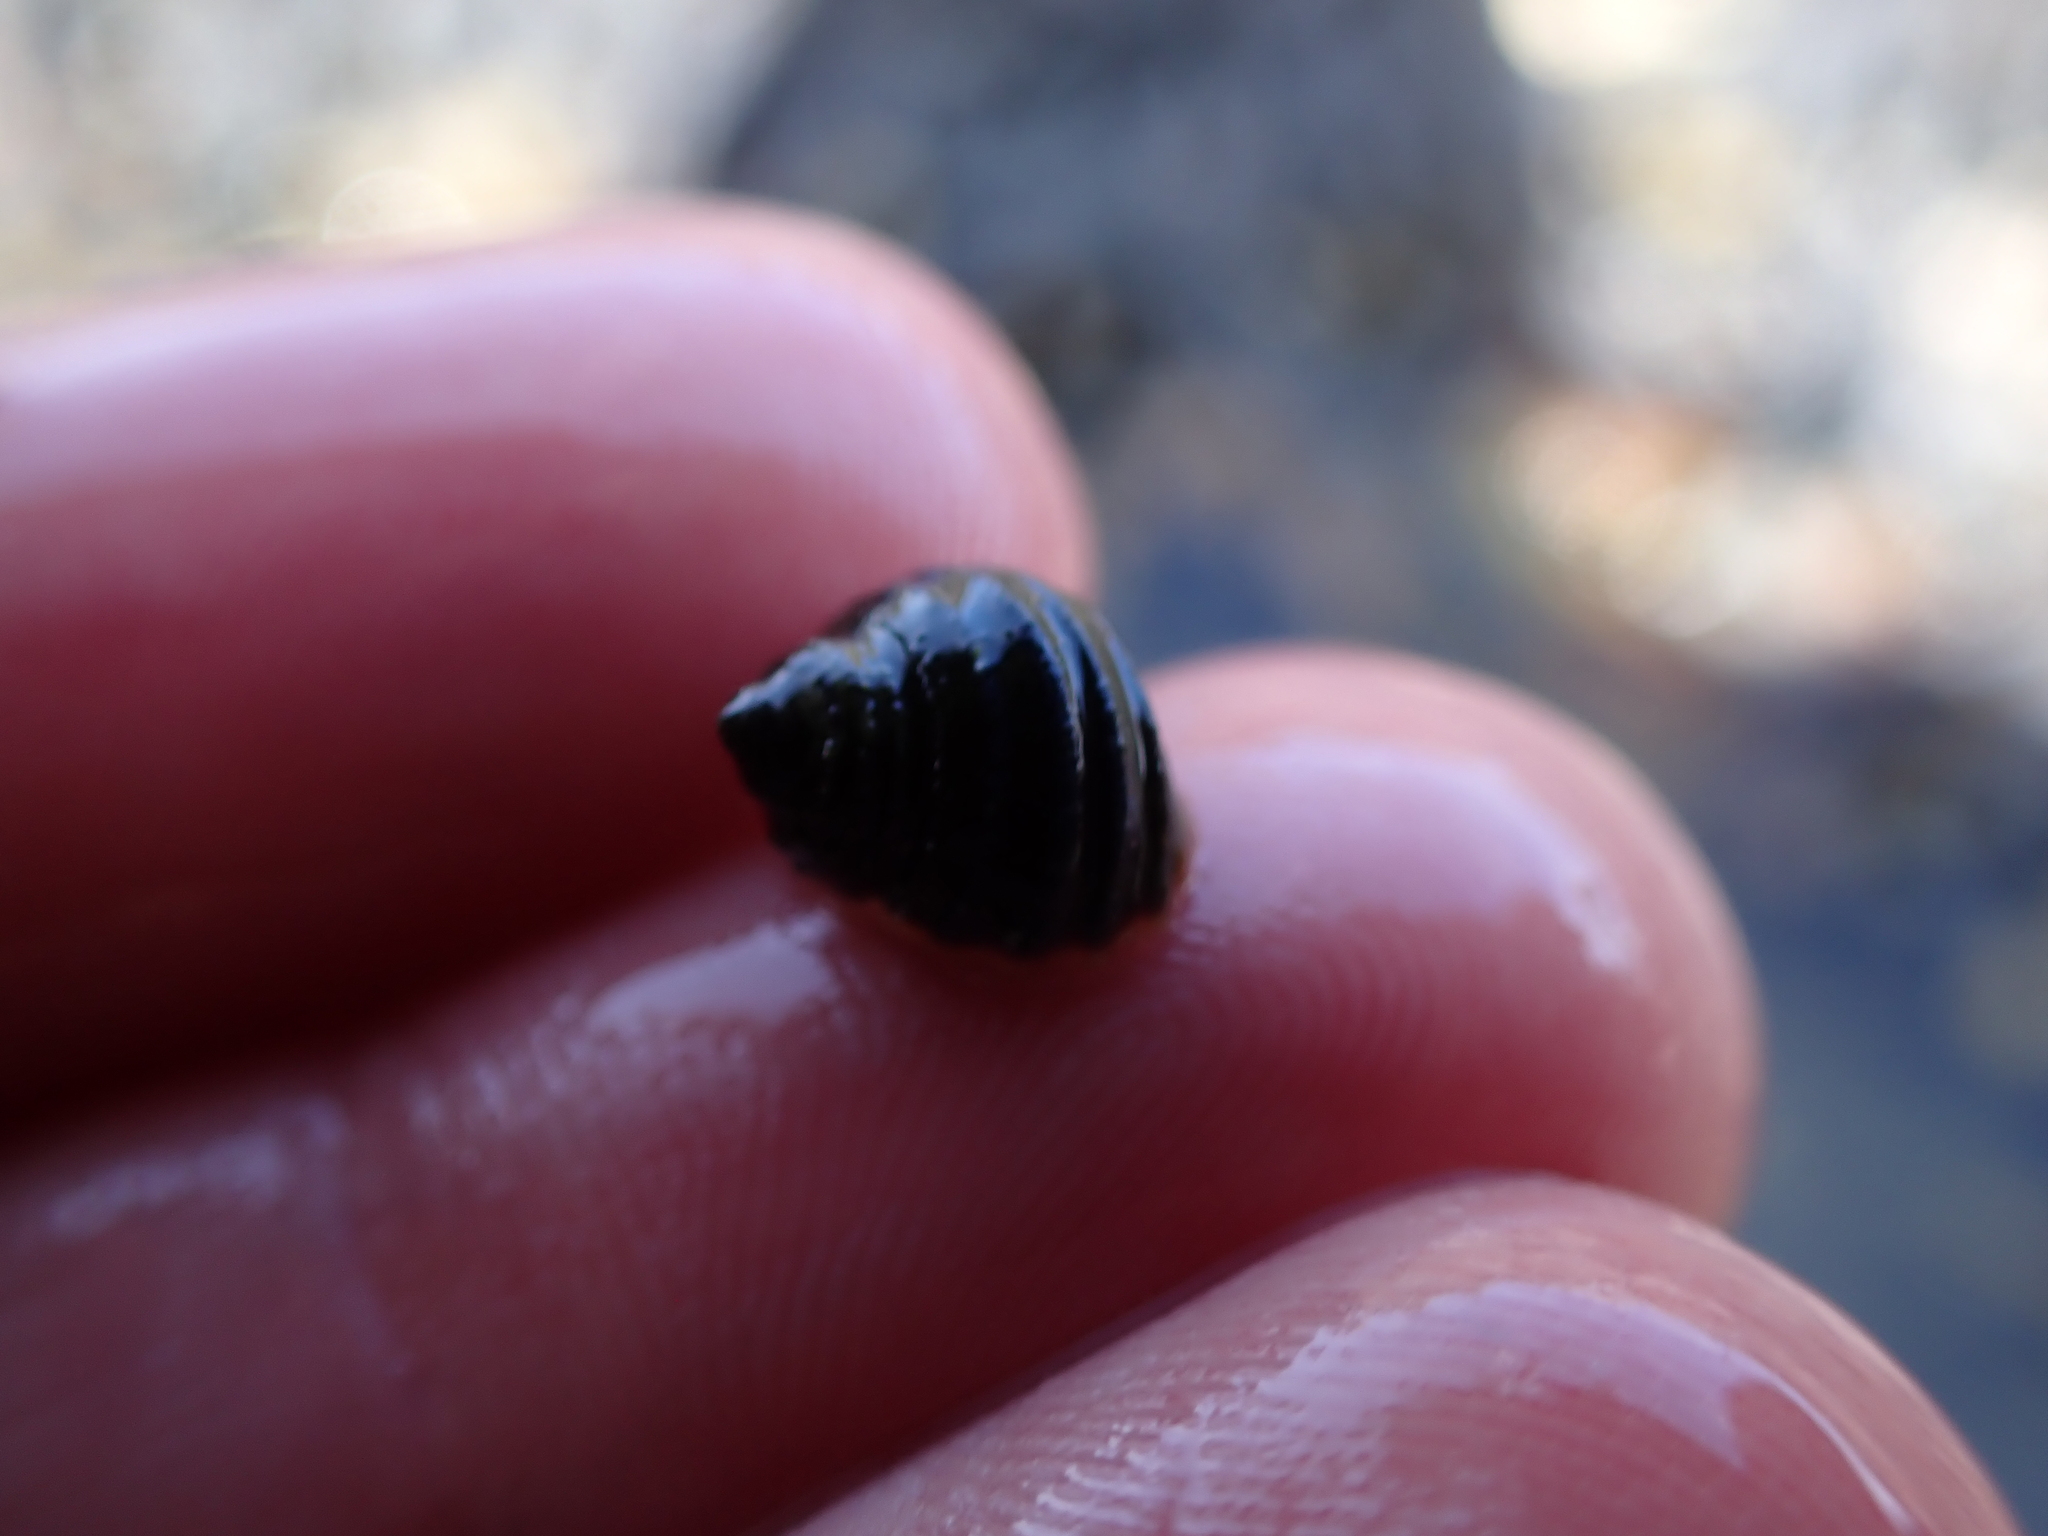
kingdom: Animalia
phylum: Mollusca
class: Gastropoda
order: Littorinimorpha
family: Littorinidae
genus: Littorina
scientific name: Littorina sitkana
